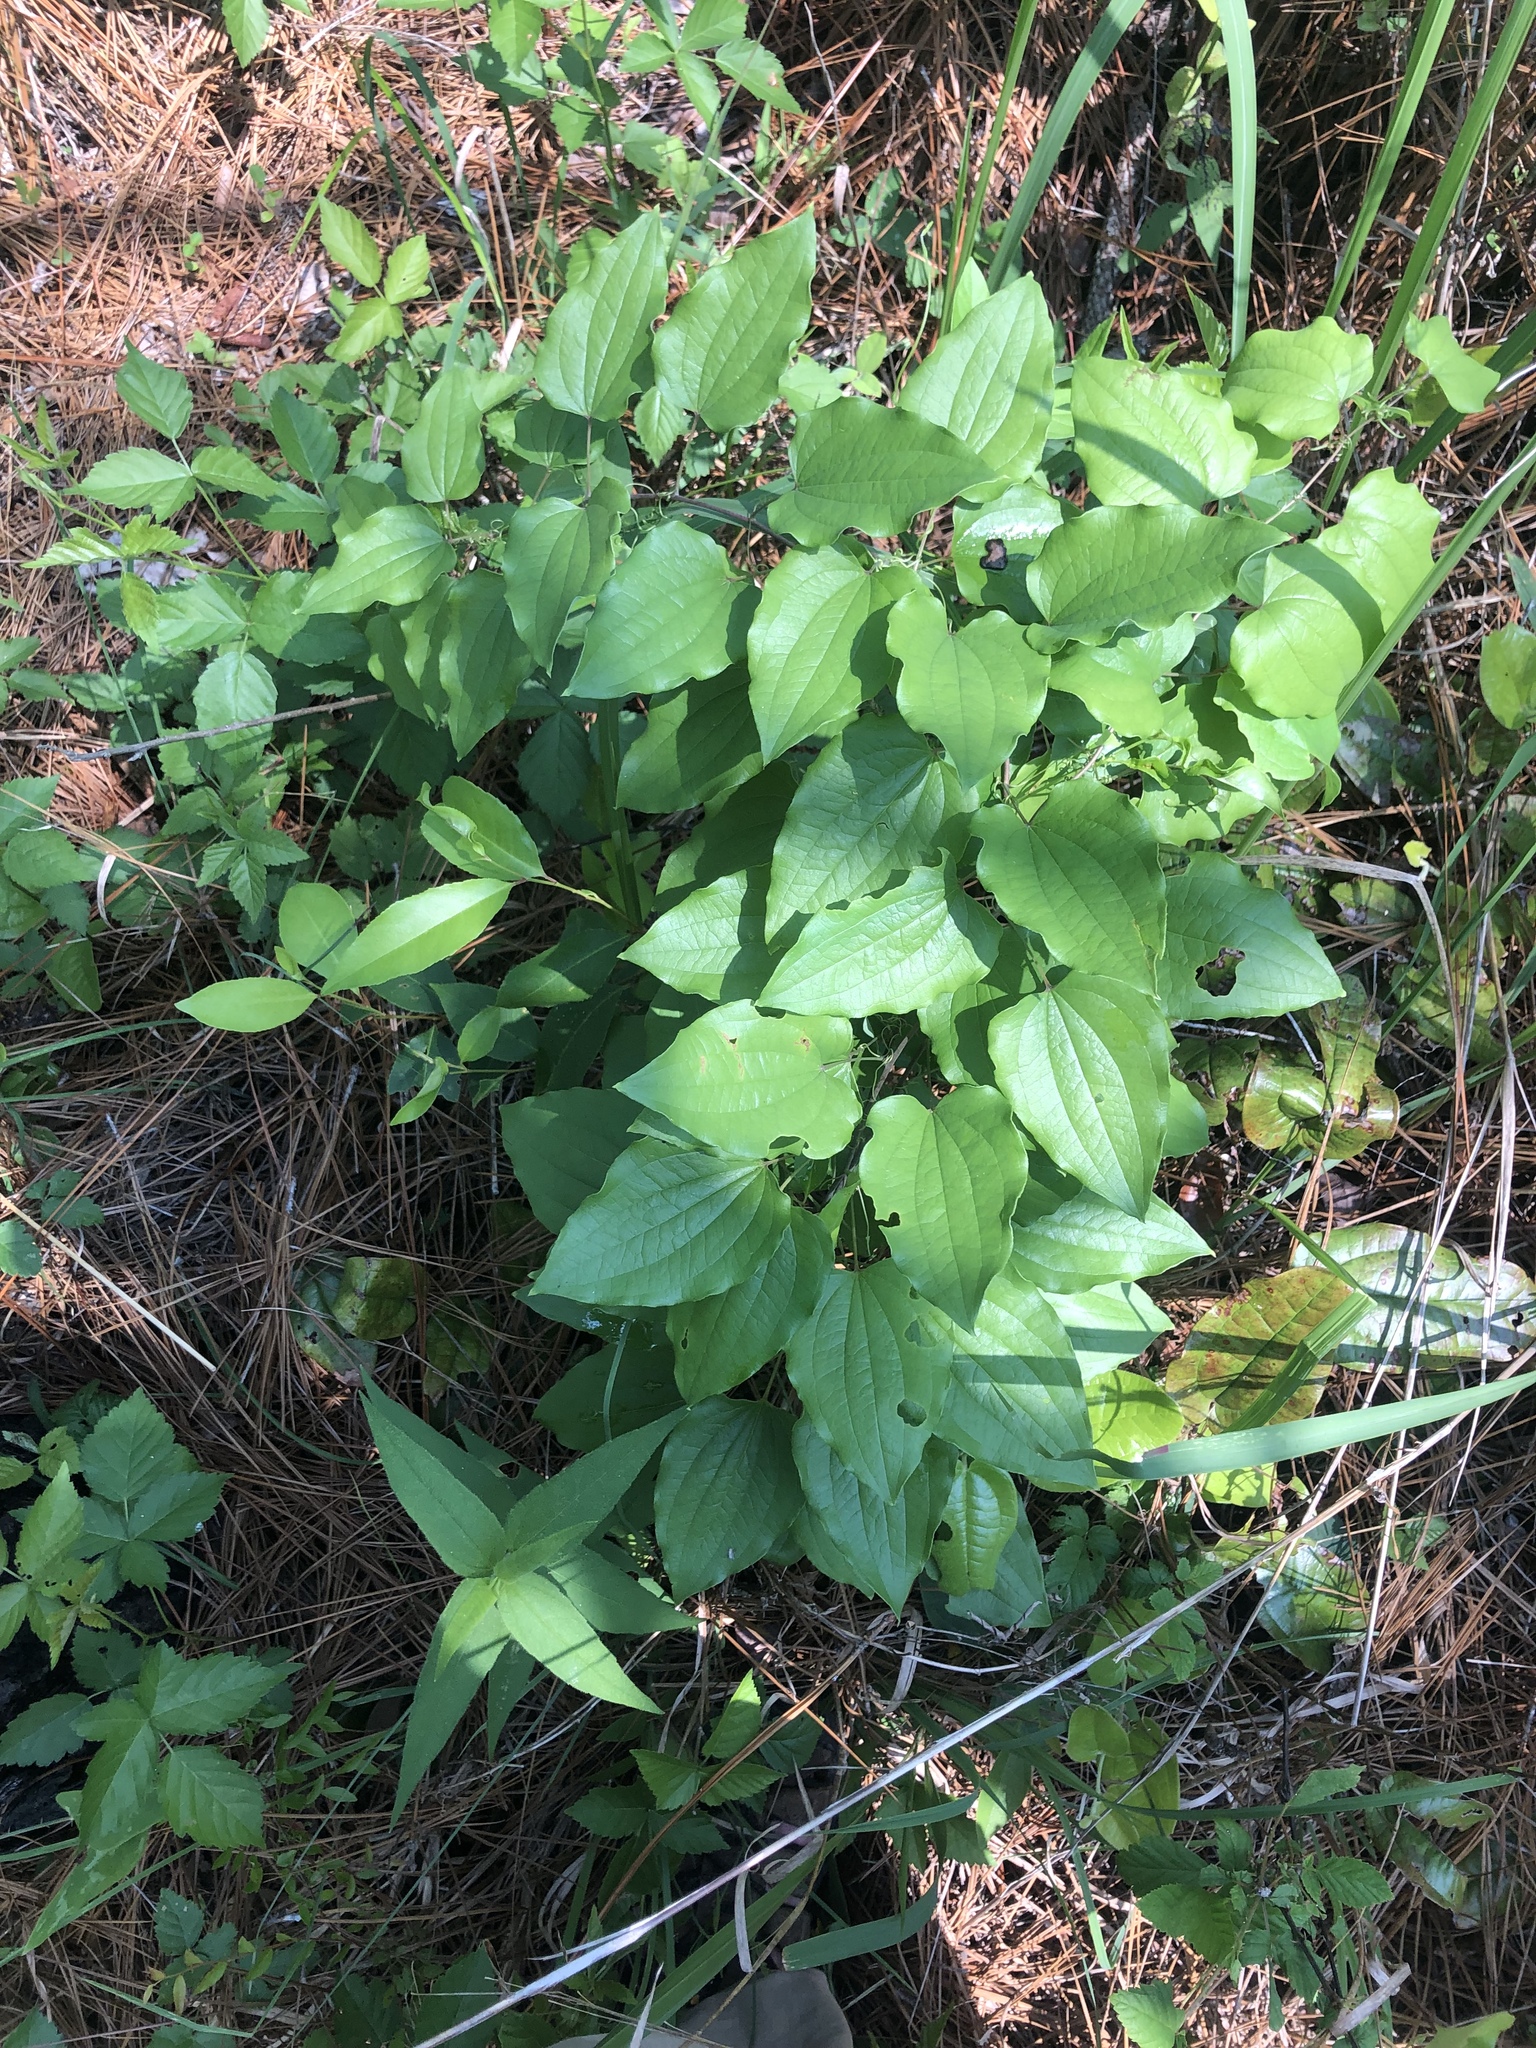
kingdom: Plantae
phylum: Tracheophyta
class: Liliopsida
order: Liliales
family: Smilacaceae
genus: Smilax
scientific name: Smilax lasioneura
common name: Blue ridge carrionflower
